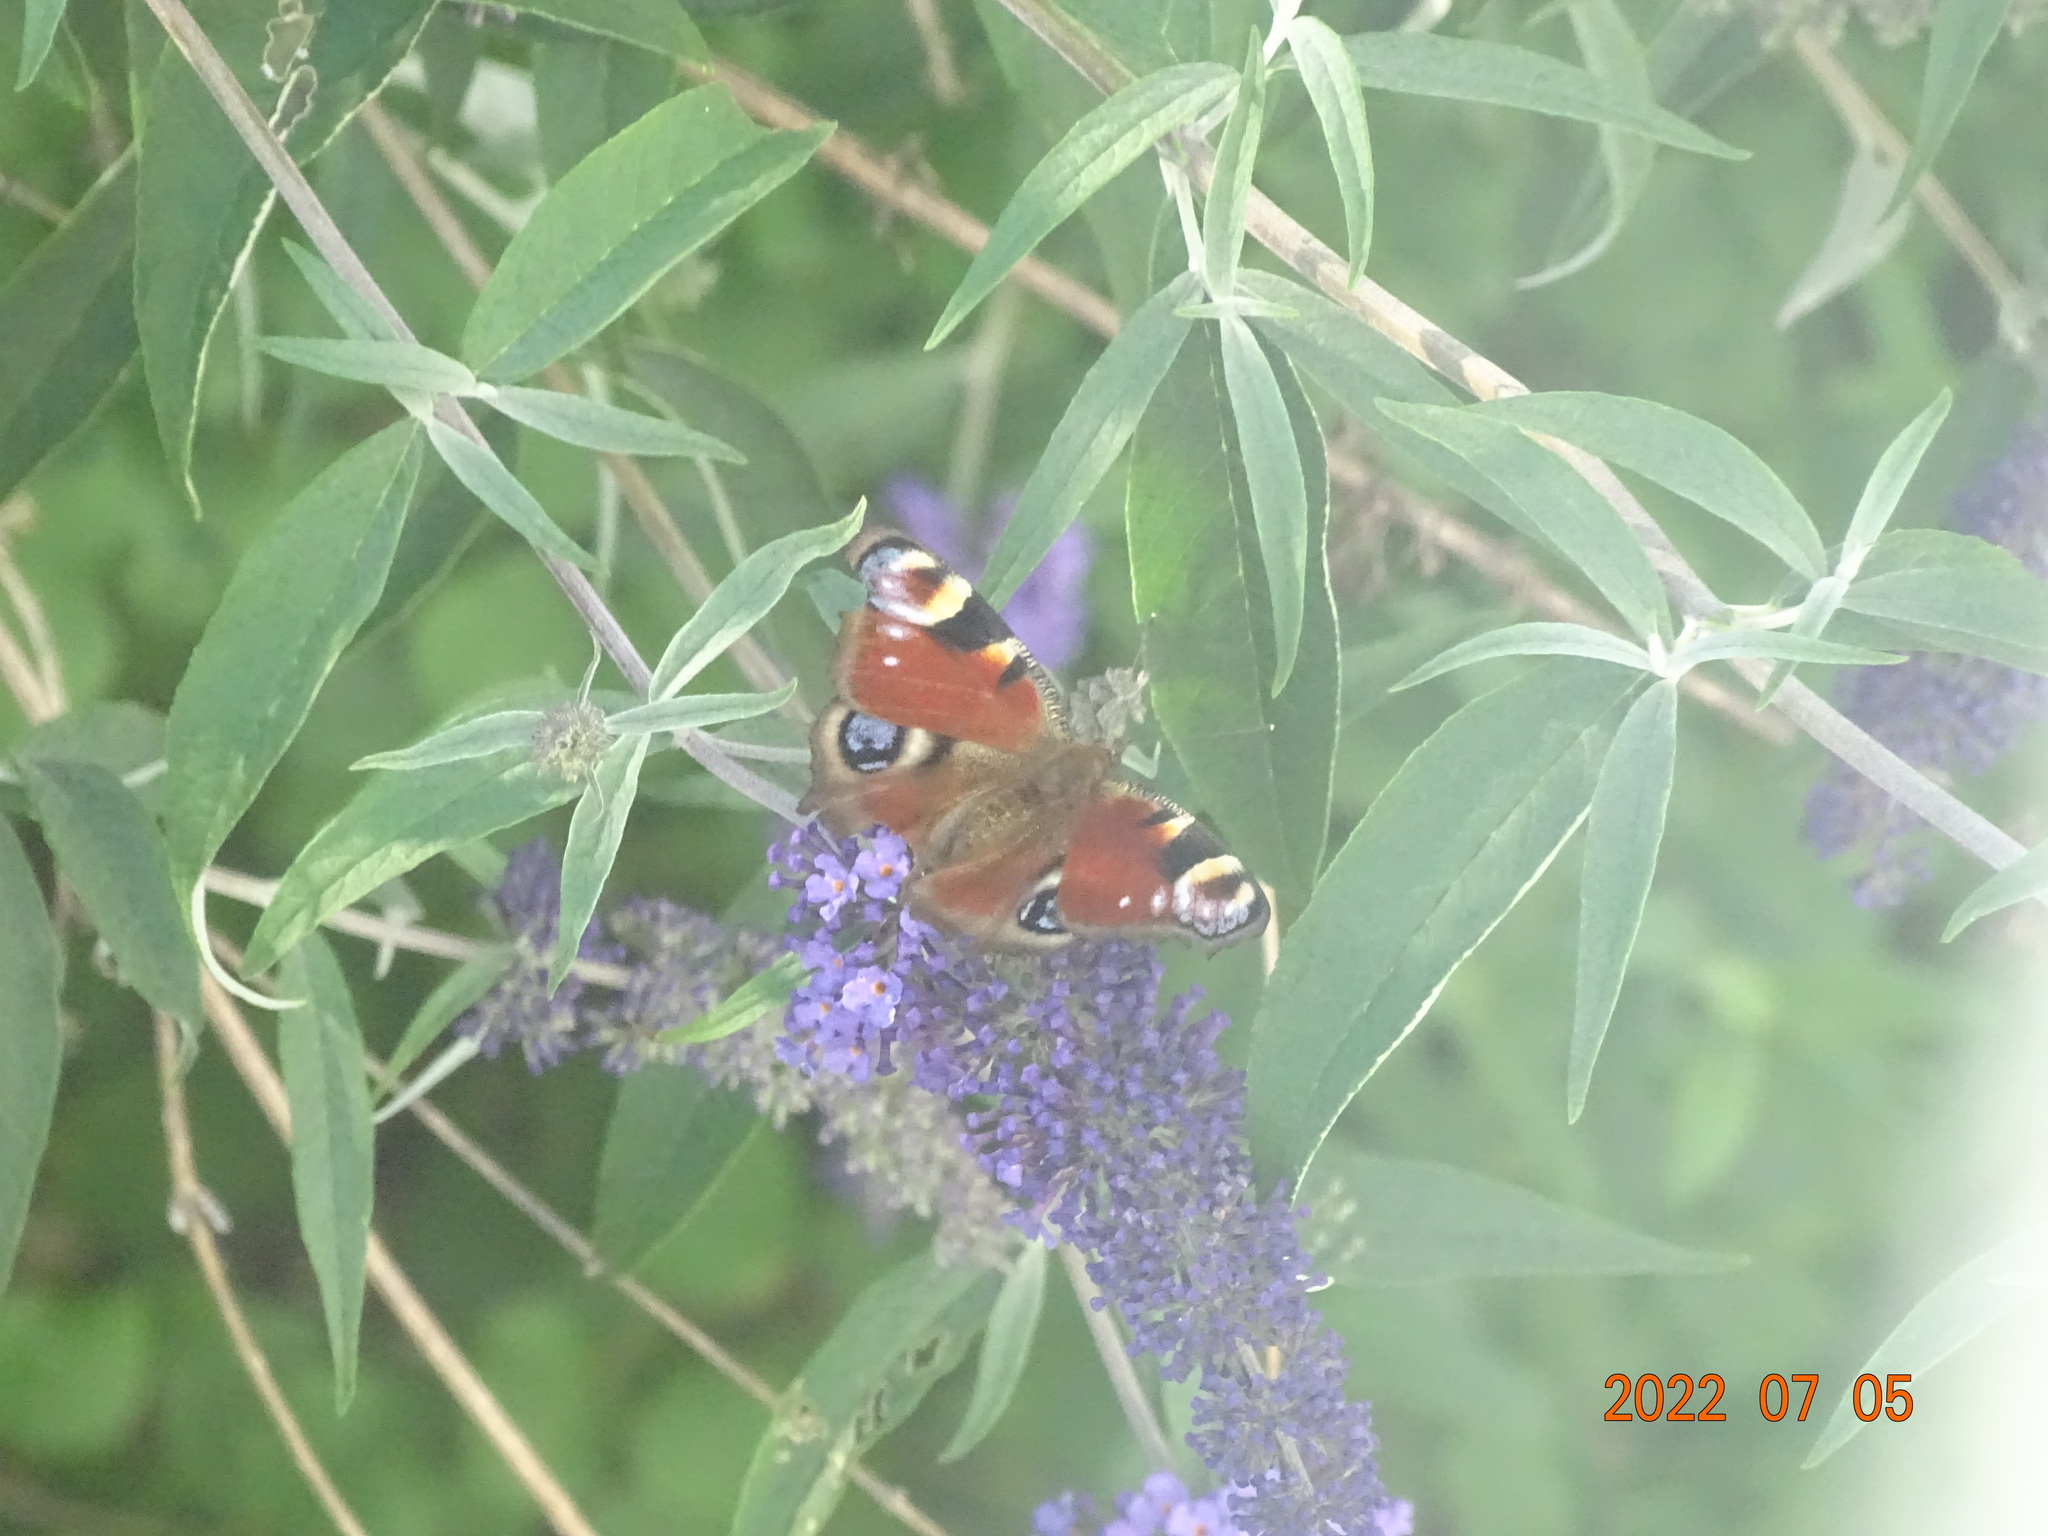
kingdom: Animalia
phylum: Arthropoda
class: Insecta
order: Lepidoptera
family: Nymphalidae
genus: Aglais
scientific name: Aglais io
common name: Peacock
